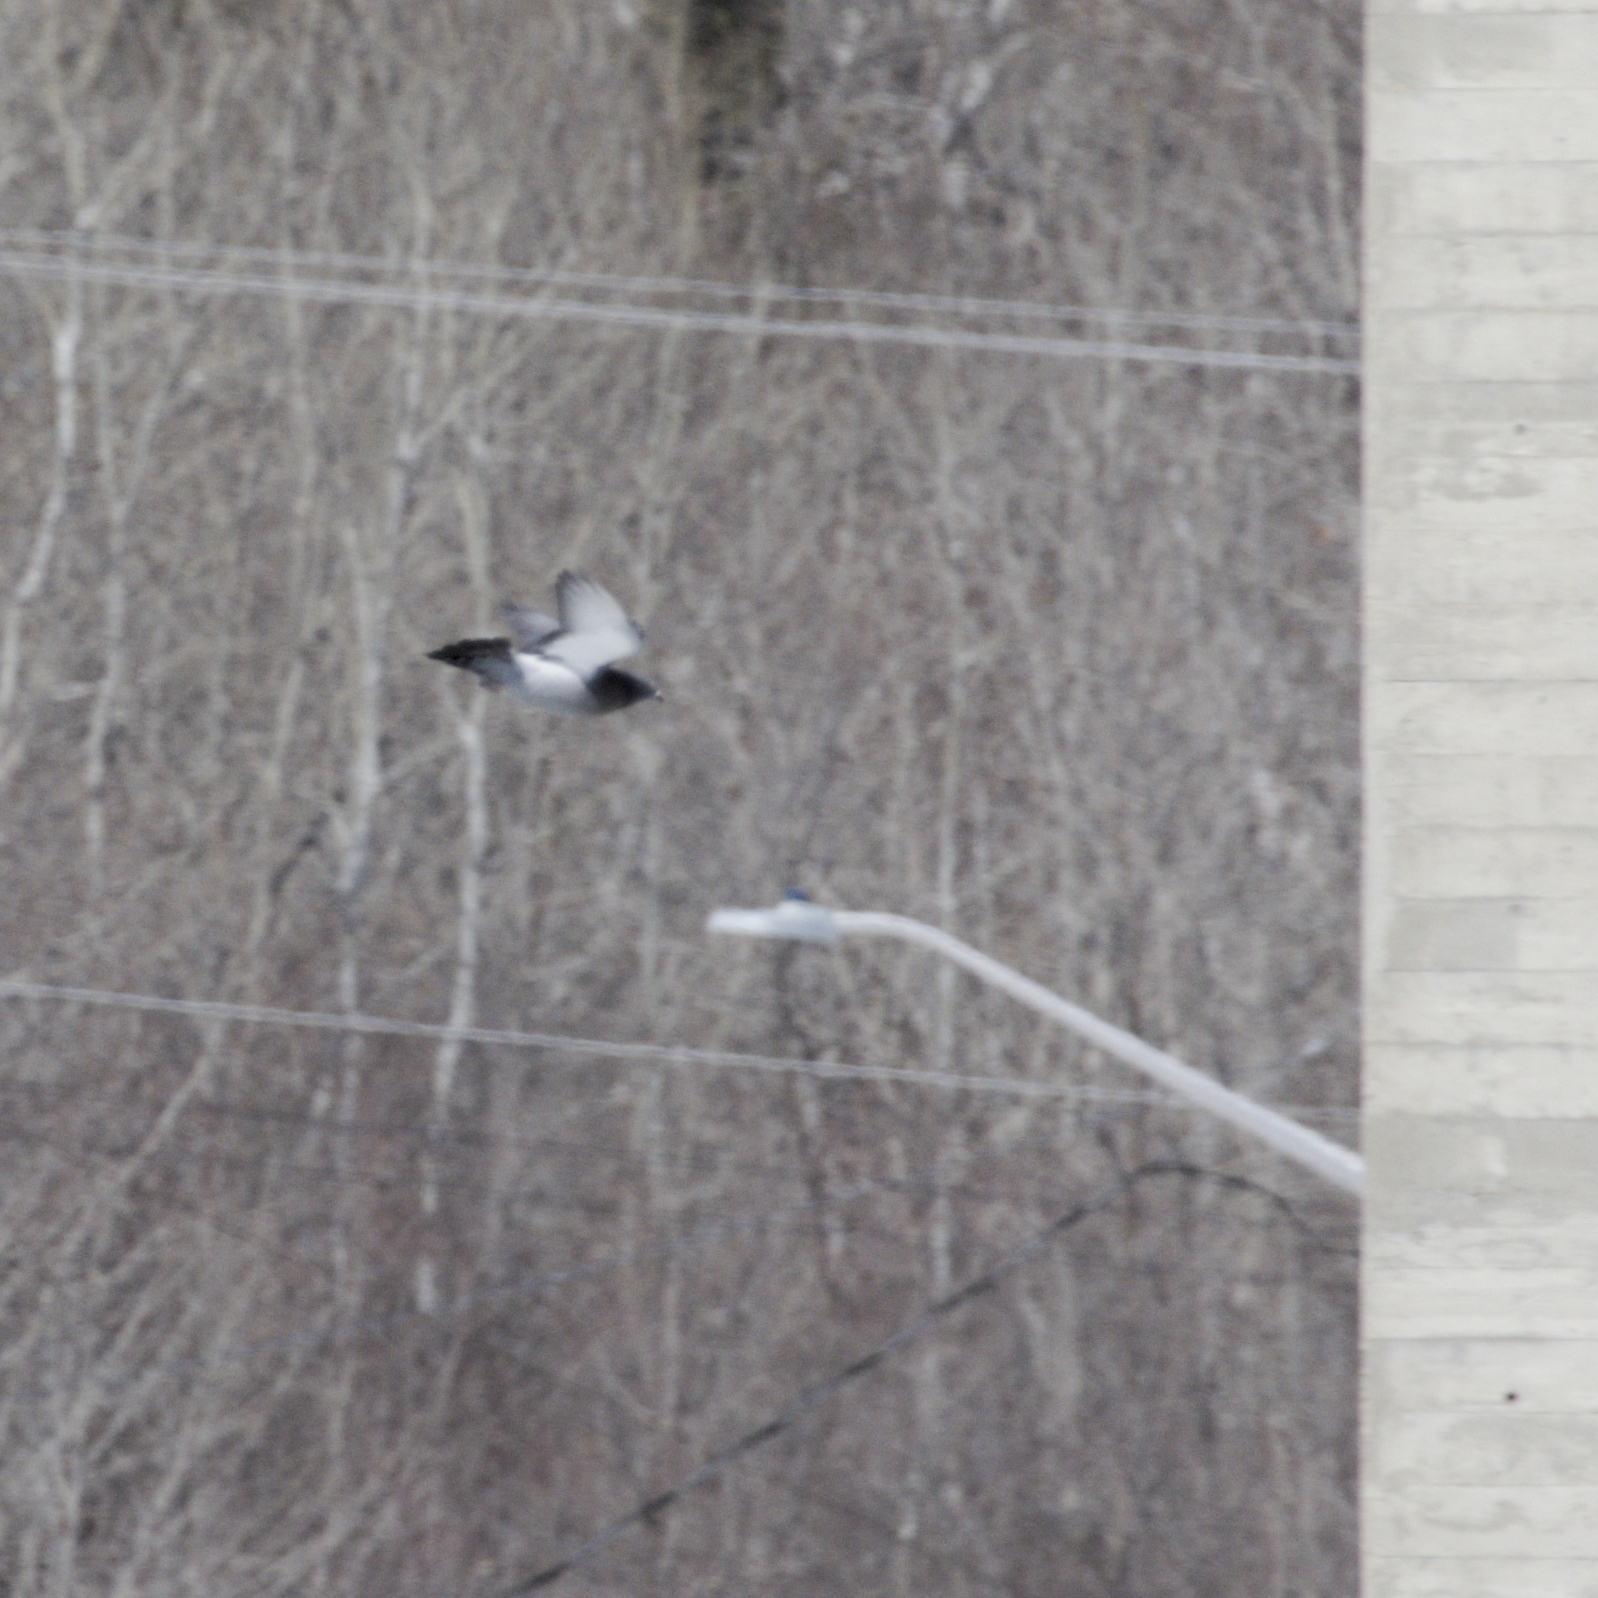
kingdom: Animalia
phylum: Chordata
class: Aves
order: Columbiformes
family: Columbidae
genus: Columba
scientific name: Columba livia
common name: Rock pigeon
